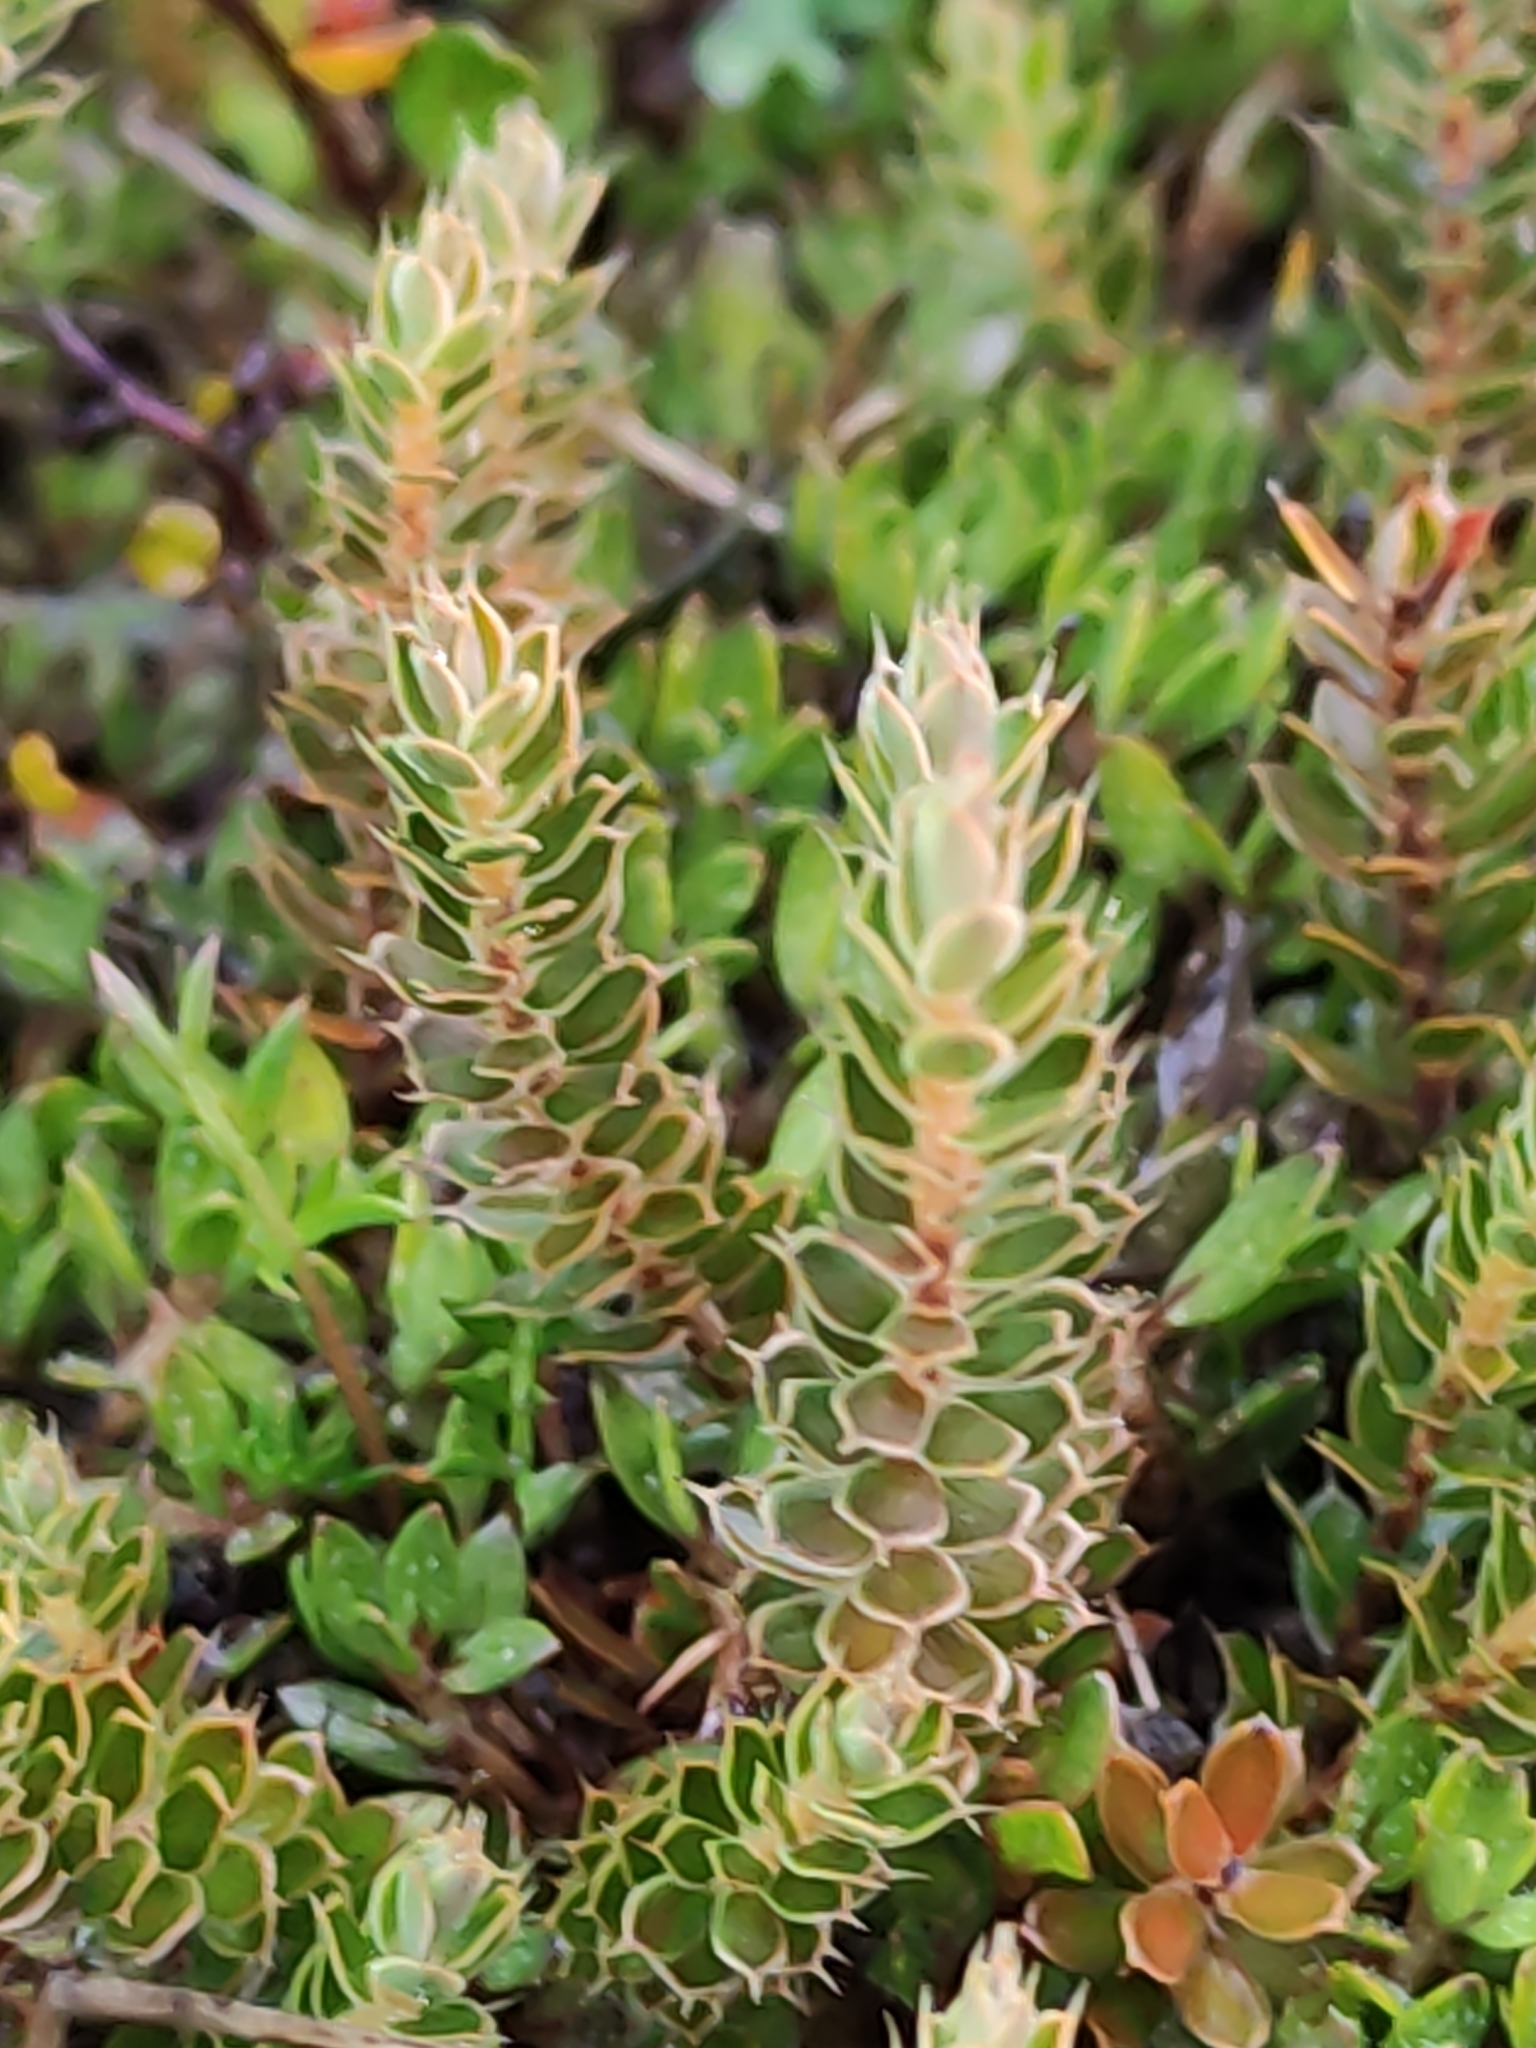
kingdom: Plantae
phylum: Tracheophyta
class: Magnoliopsida
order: Ericales
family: Ericaceae
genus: Styphelia
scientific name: Styphelia nesophila
